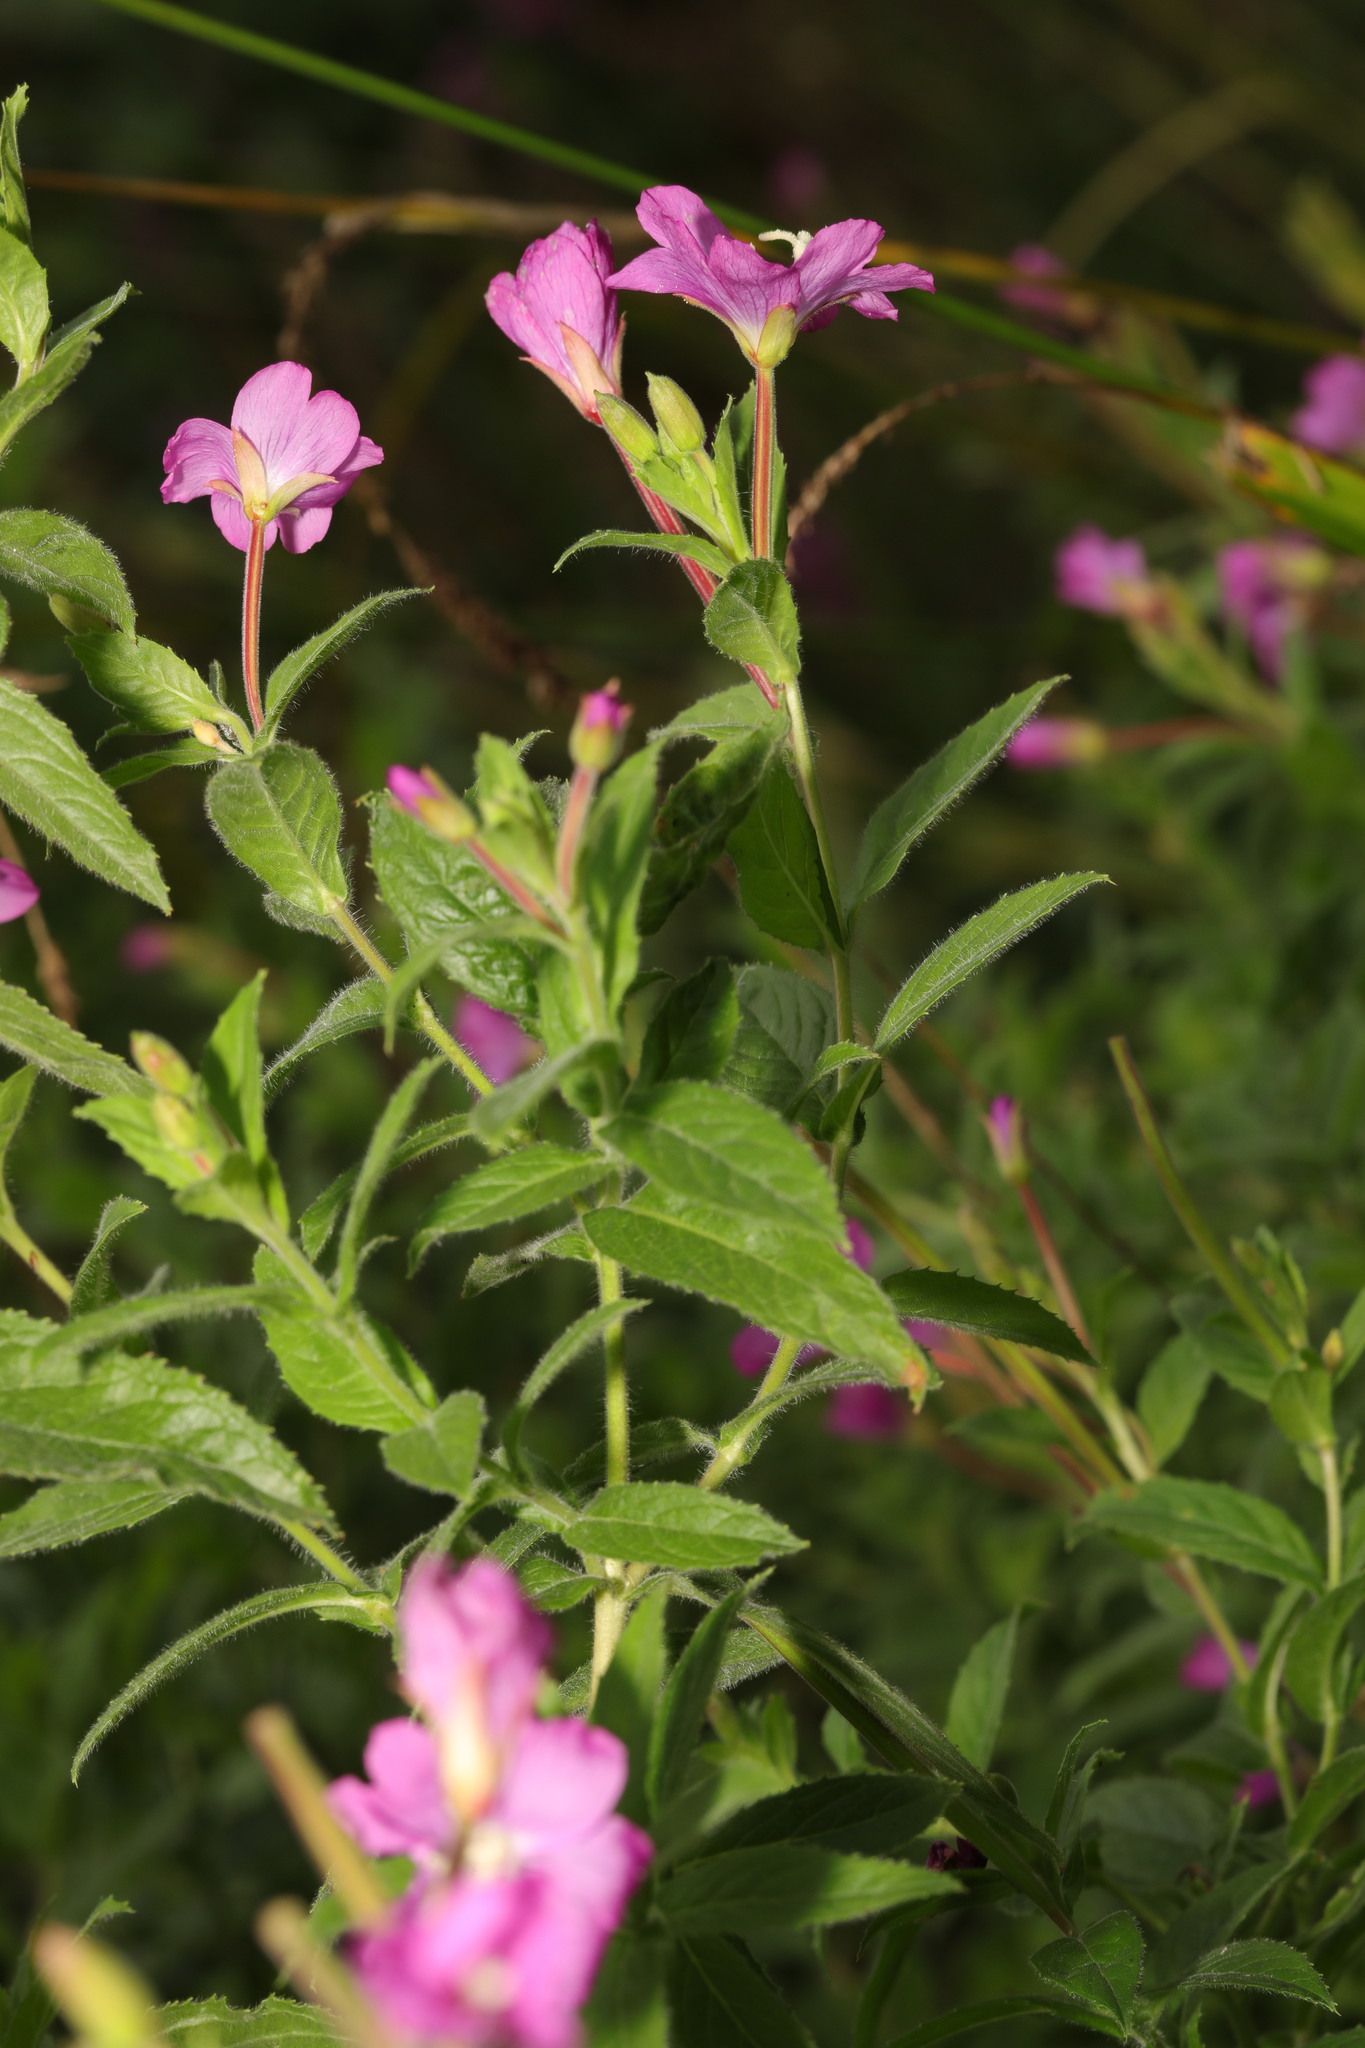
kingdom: Plantae
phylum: Tracheophyta
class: Magnoliopsida
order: Myrtales
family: Onagraceae
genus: Epilobium
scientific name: Epilobium hirsutum
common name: Great willowherb
